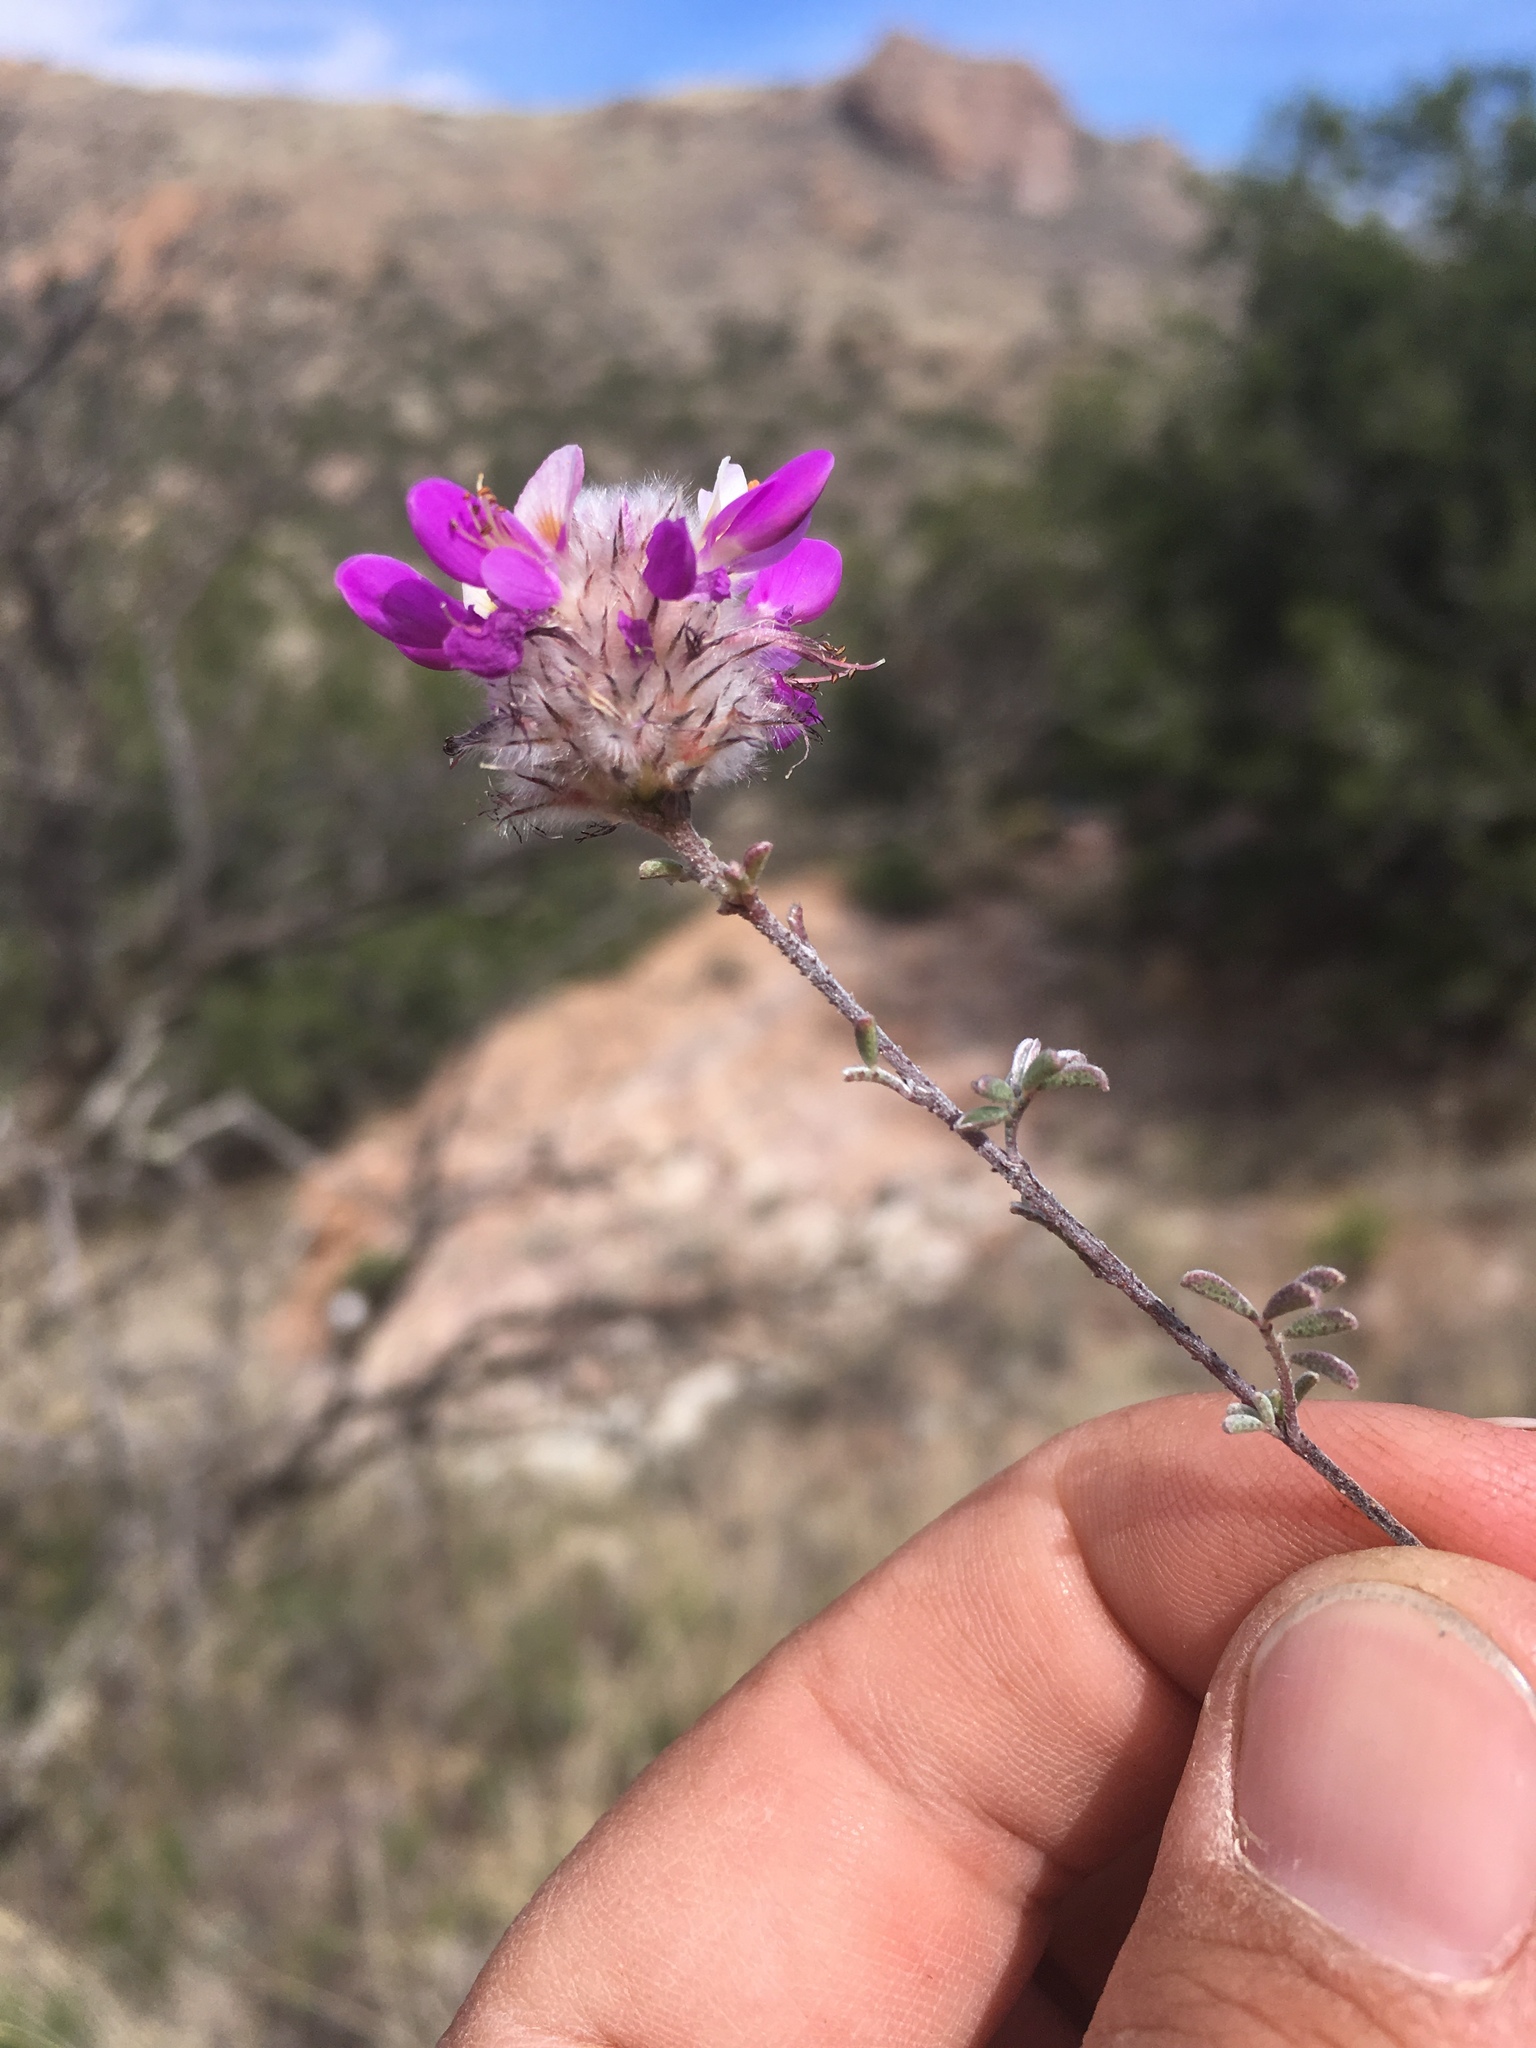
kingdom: Plantae
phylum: Tracheophyta
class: Magnoliopsida
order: Fabales
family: Fabaceae
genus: Dalea
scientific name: Dalea pulchra
